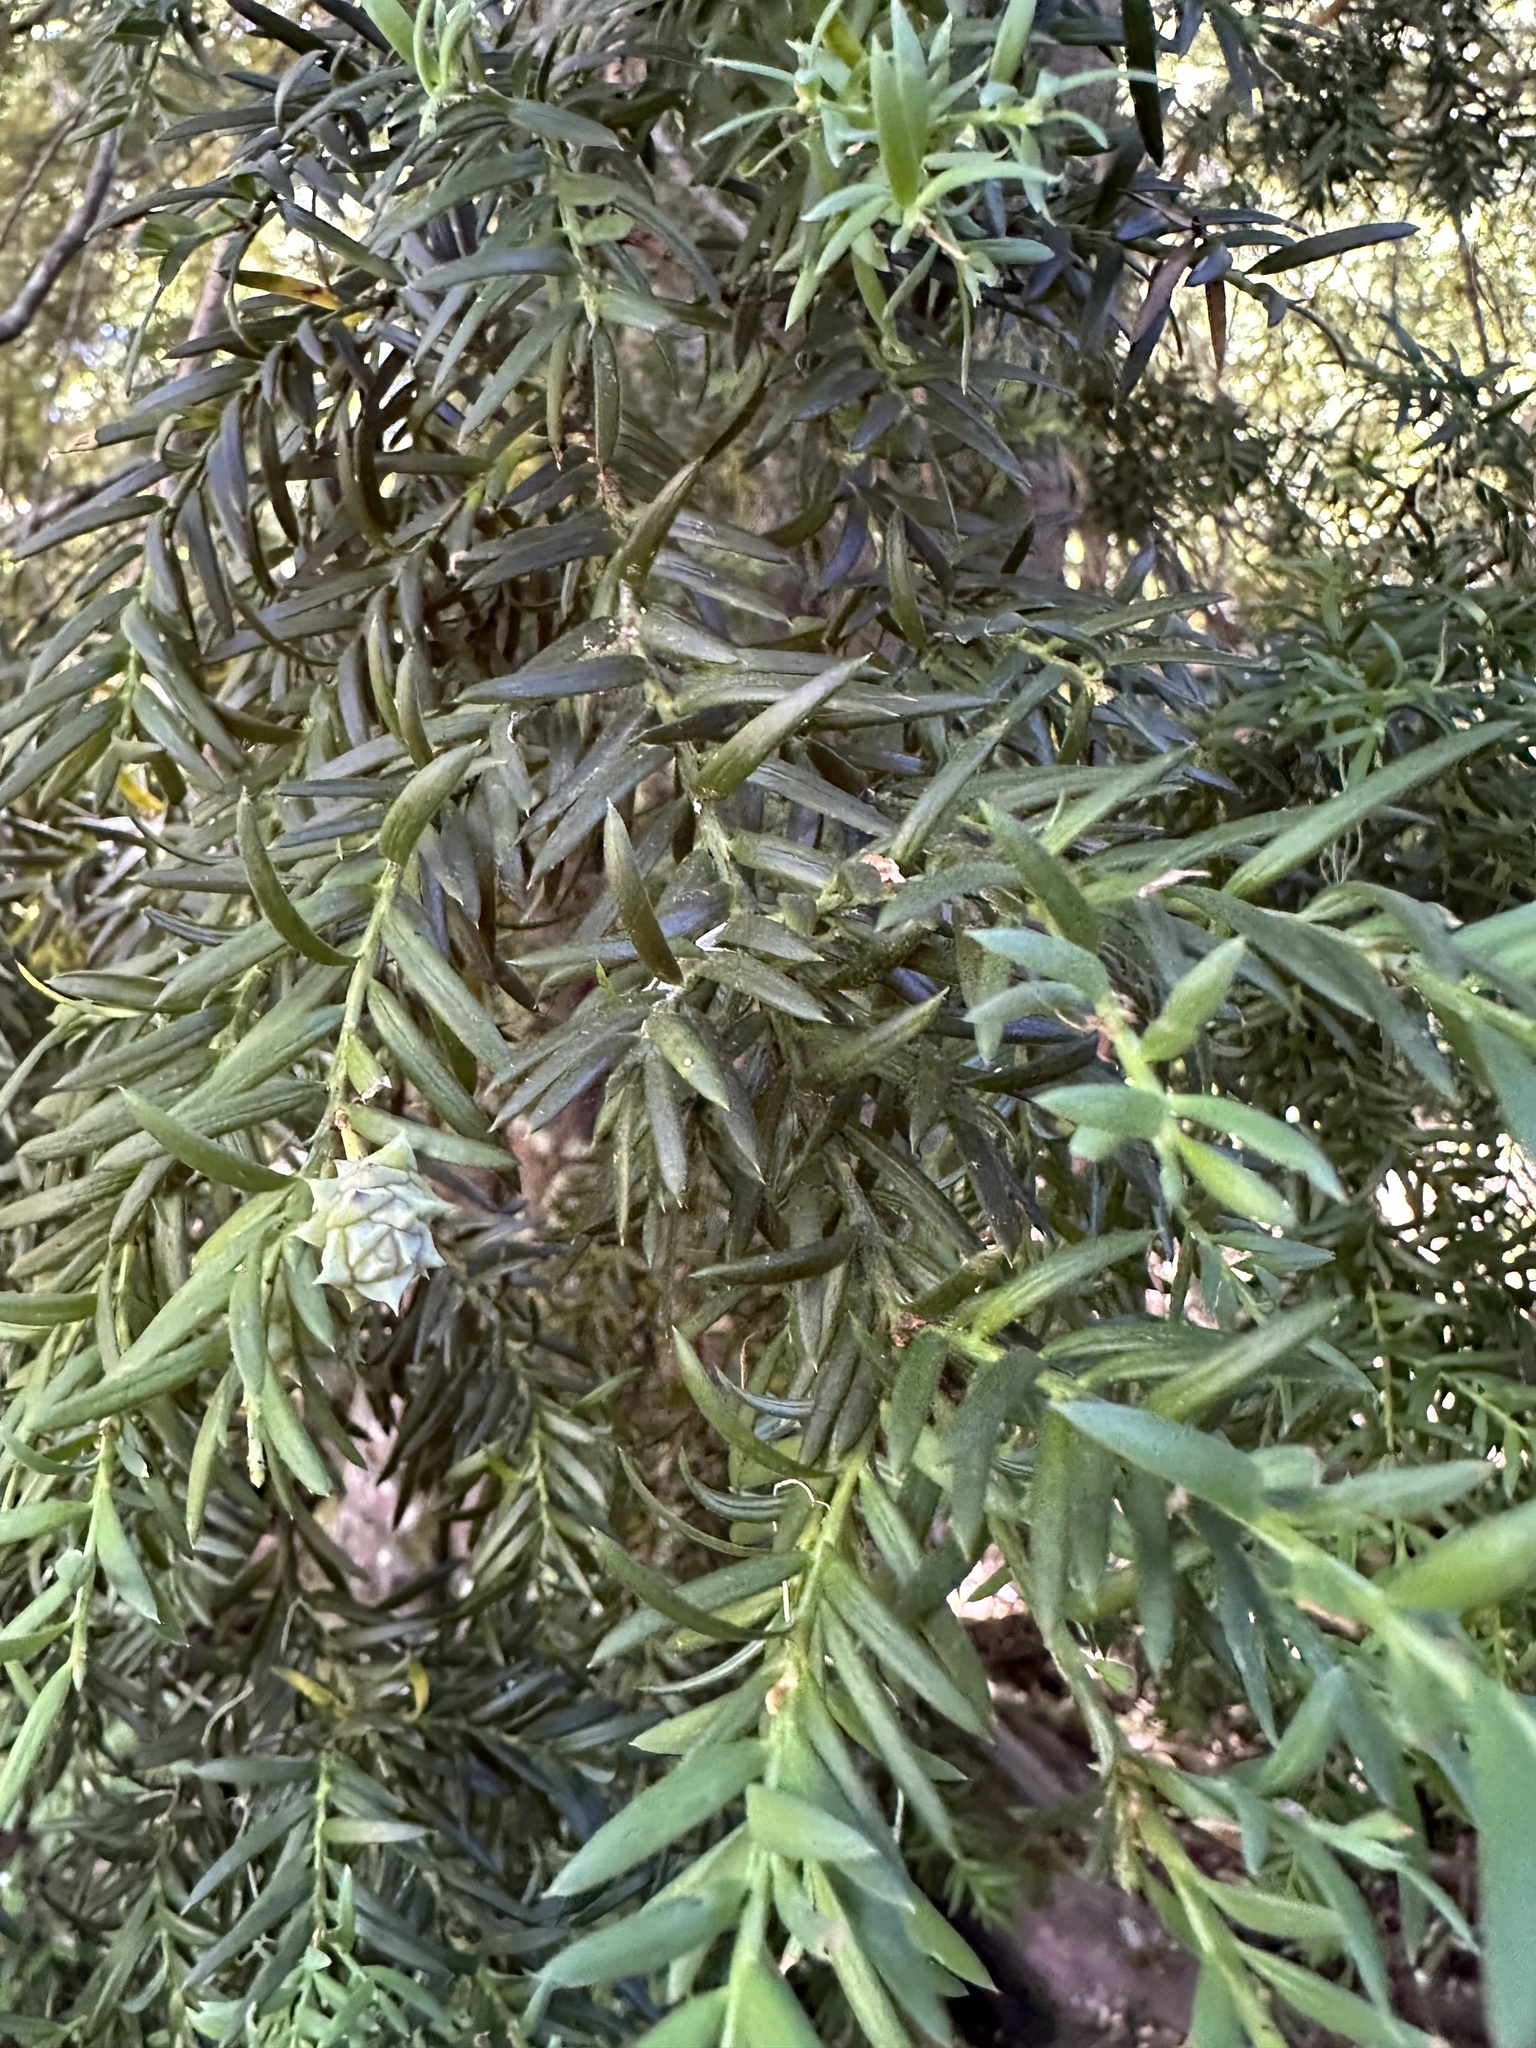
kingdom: Plantae
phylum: Tracheophyta
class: Pinopsida
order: Pinales
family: Podocarpaceae
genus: Saxegothaea
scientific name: Saxegothaea conspicua
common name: Prince albert's yew
